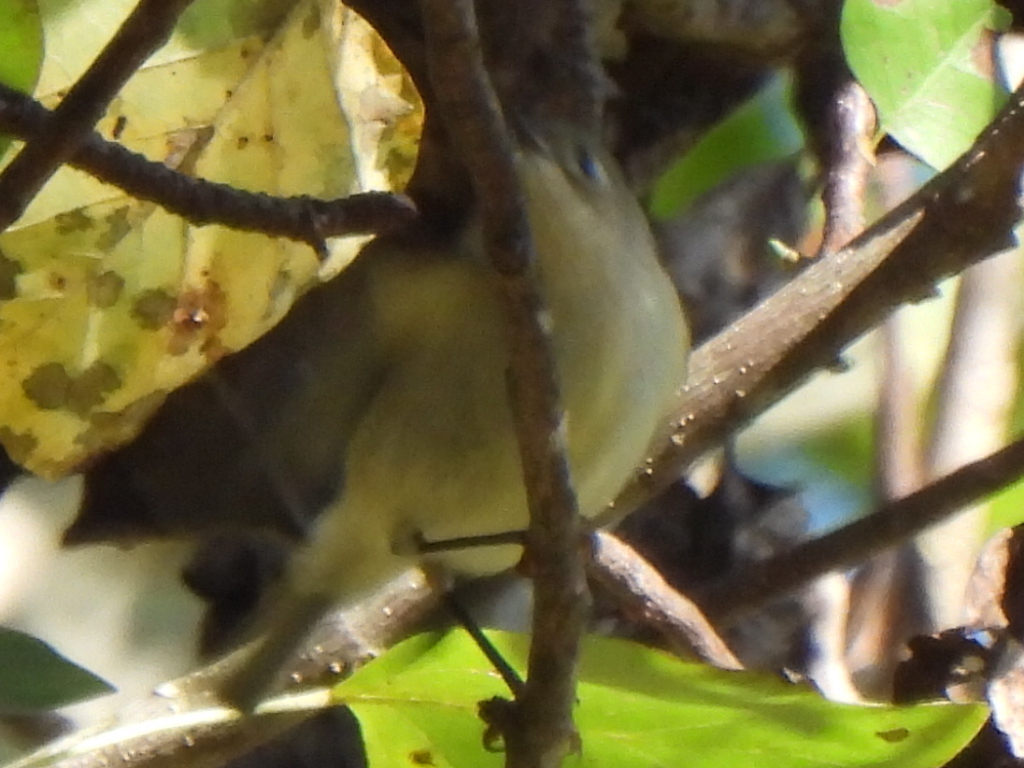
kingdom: Animalia
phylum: Chordata
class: Aves
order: Passeriformes
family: Regulidae
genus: Regulus
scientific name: Regulus calendula
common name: Ruby-crowned kinglet
